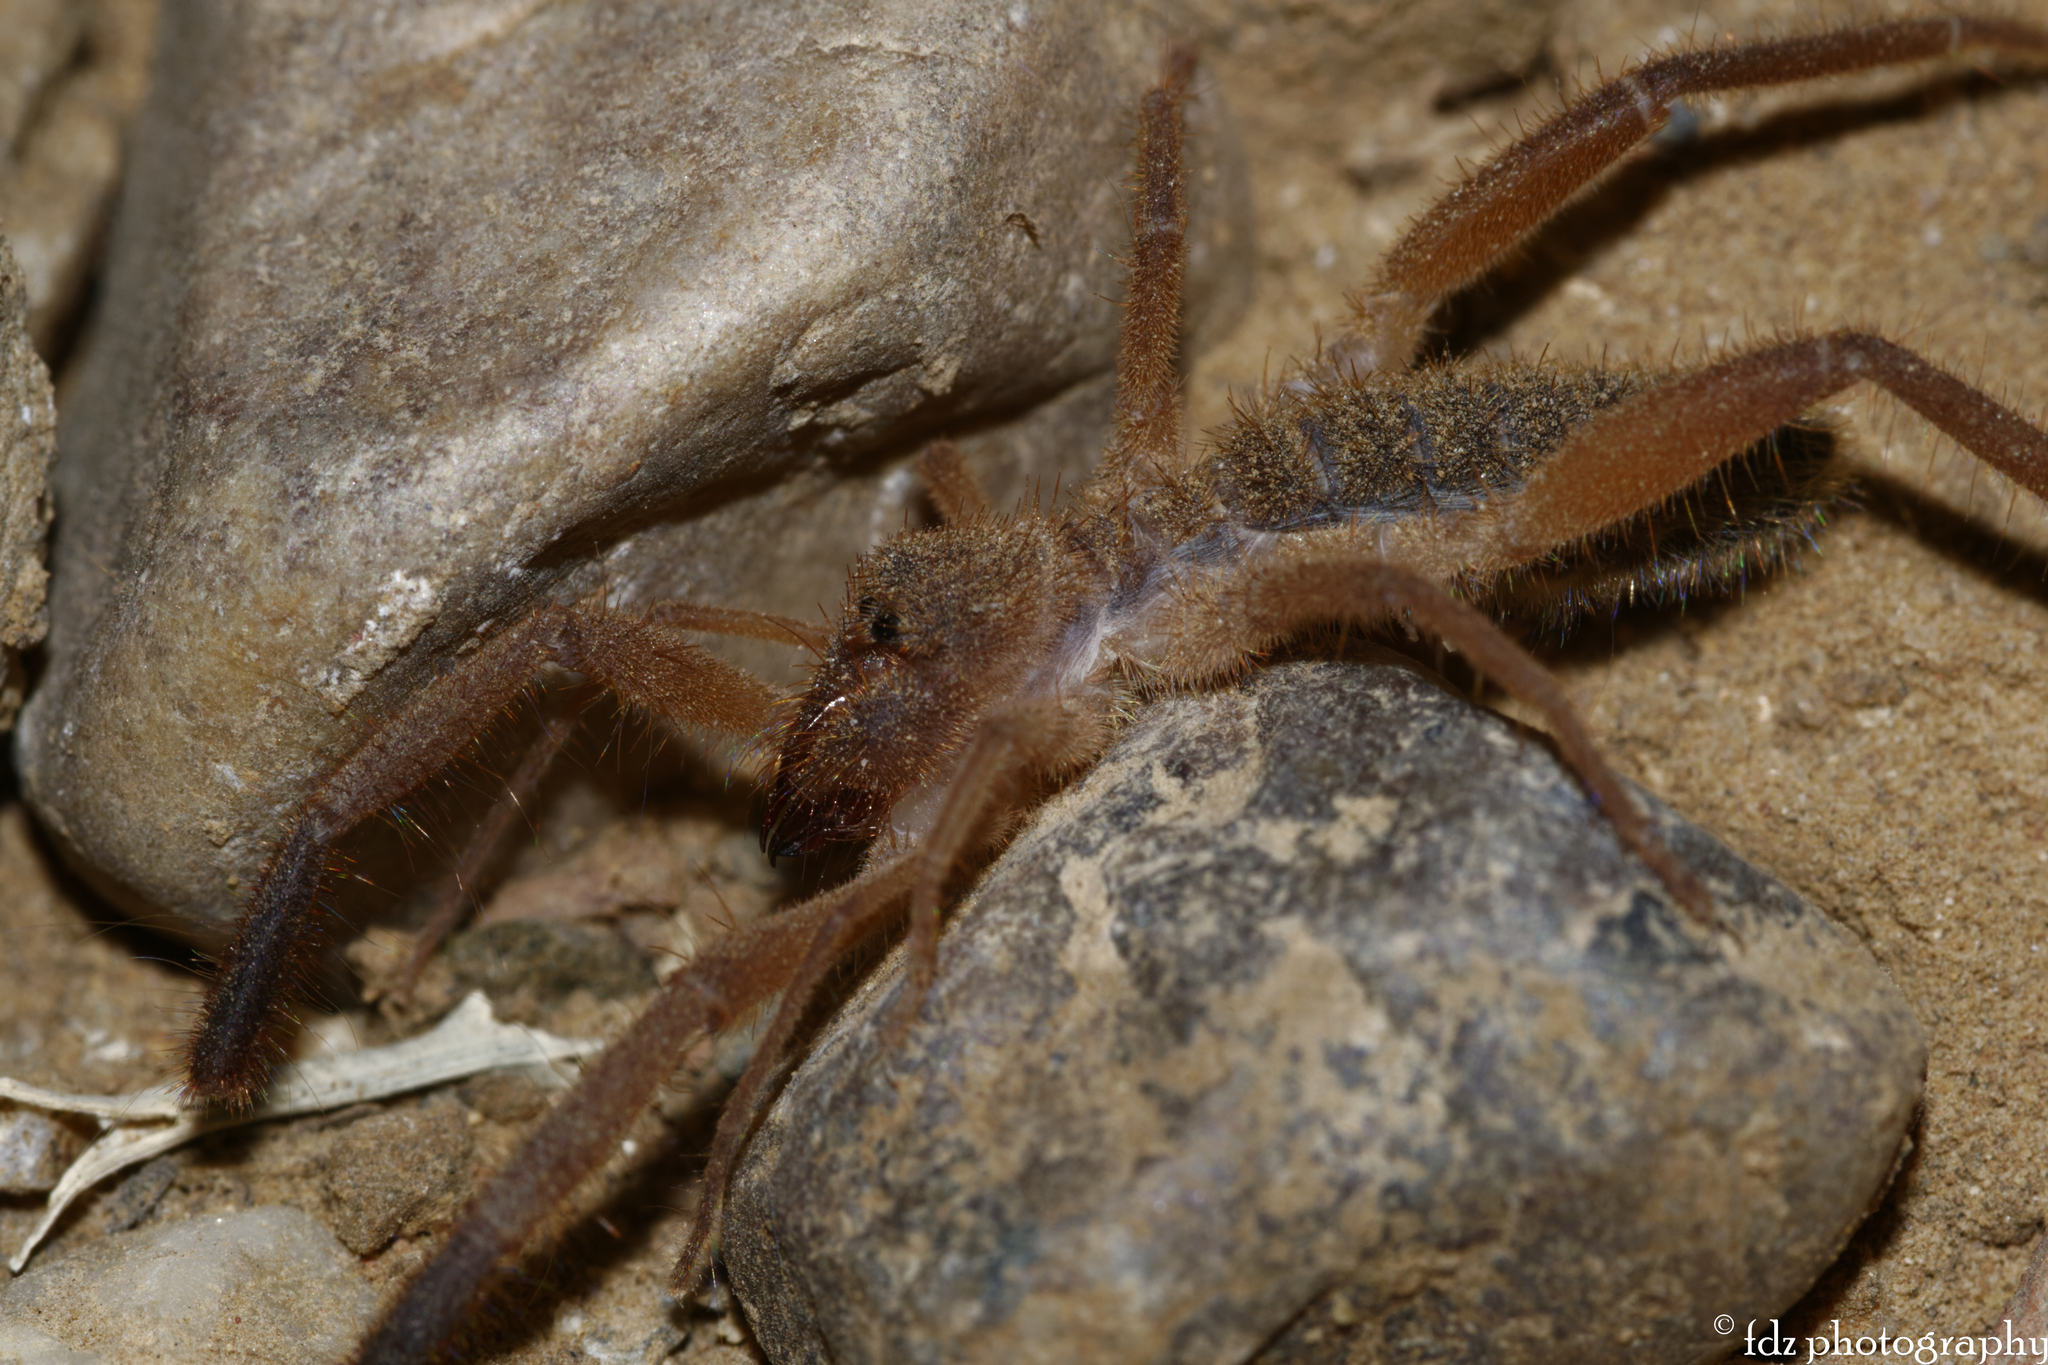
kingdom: Animalia
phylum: Arthropoda
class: Arachnida
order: Solifugae
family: Daesiidae
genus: Gluvia
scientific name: Gluvia dorsalis
